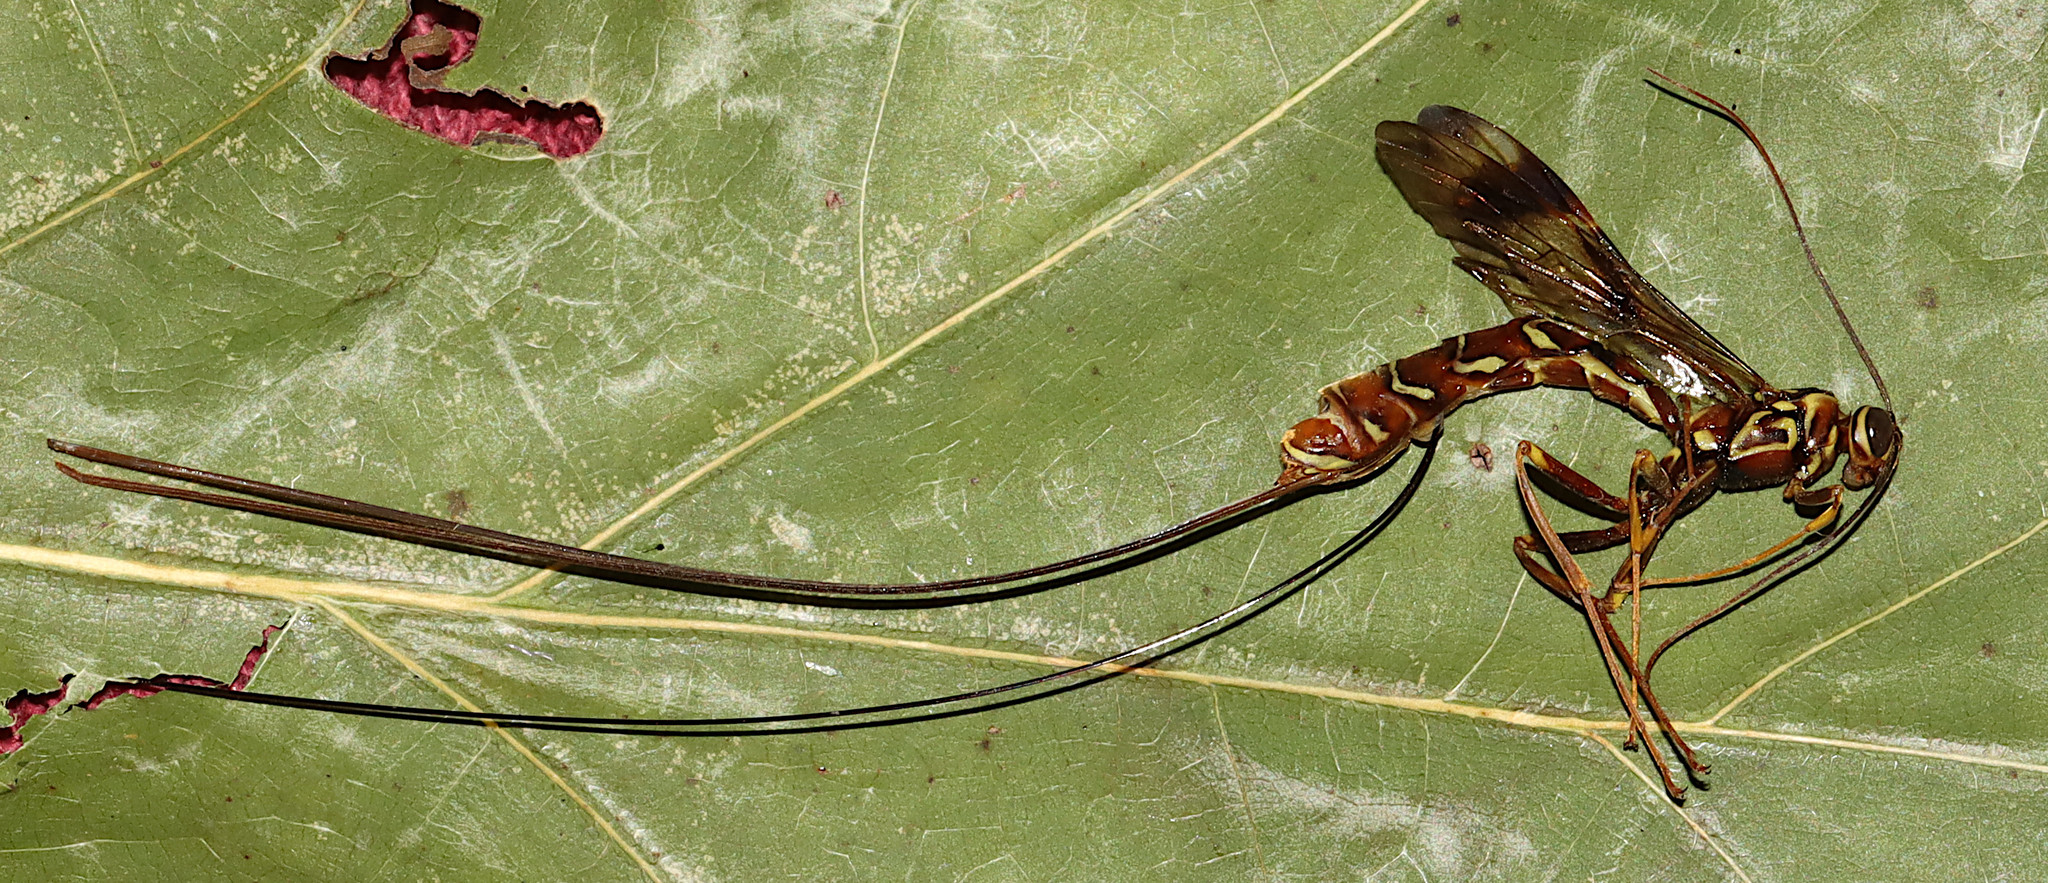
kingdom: Animalia
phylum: Arthropoda
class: Insecta
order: Hymenoptera
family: Ichneumonidae
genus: Megarhyssa
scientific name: Megarhyssa macrura
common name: Long-tailed giant ichneumonid wasp
